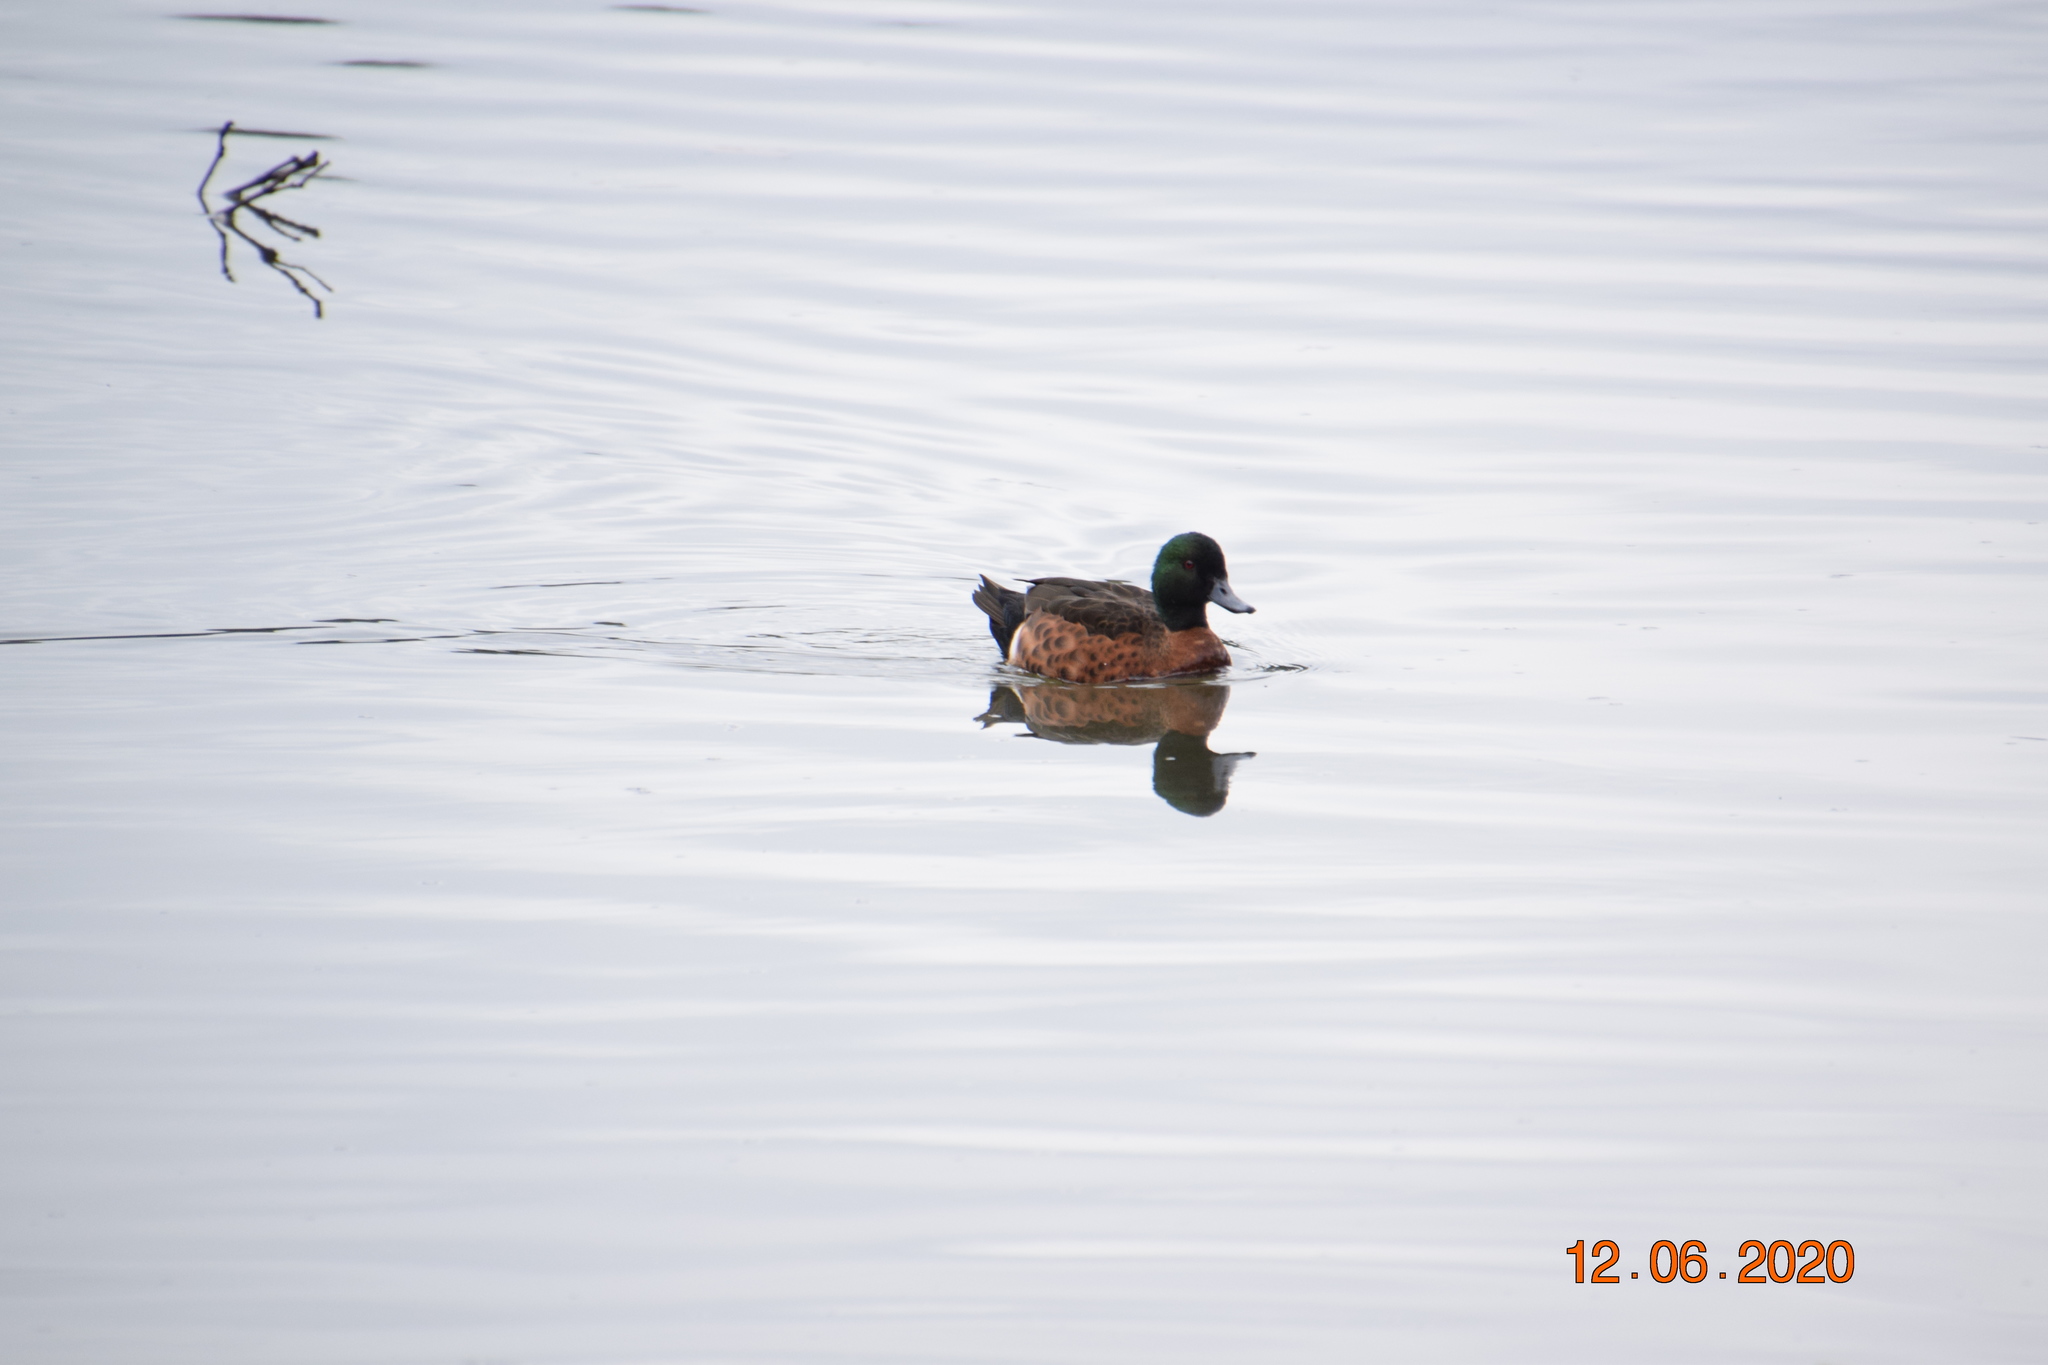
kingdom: Animalia
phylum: Chordata
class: Aves
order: Anseriformes
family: Anatidae
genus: Anas
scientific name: Anas castanea
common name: Chestnut teal
